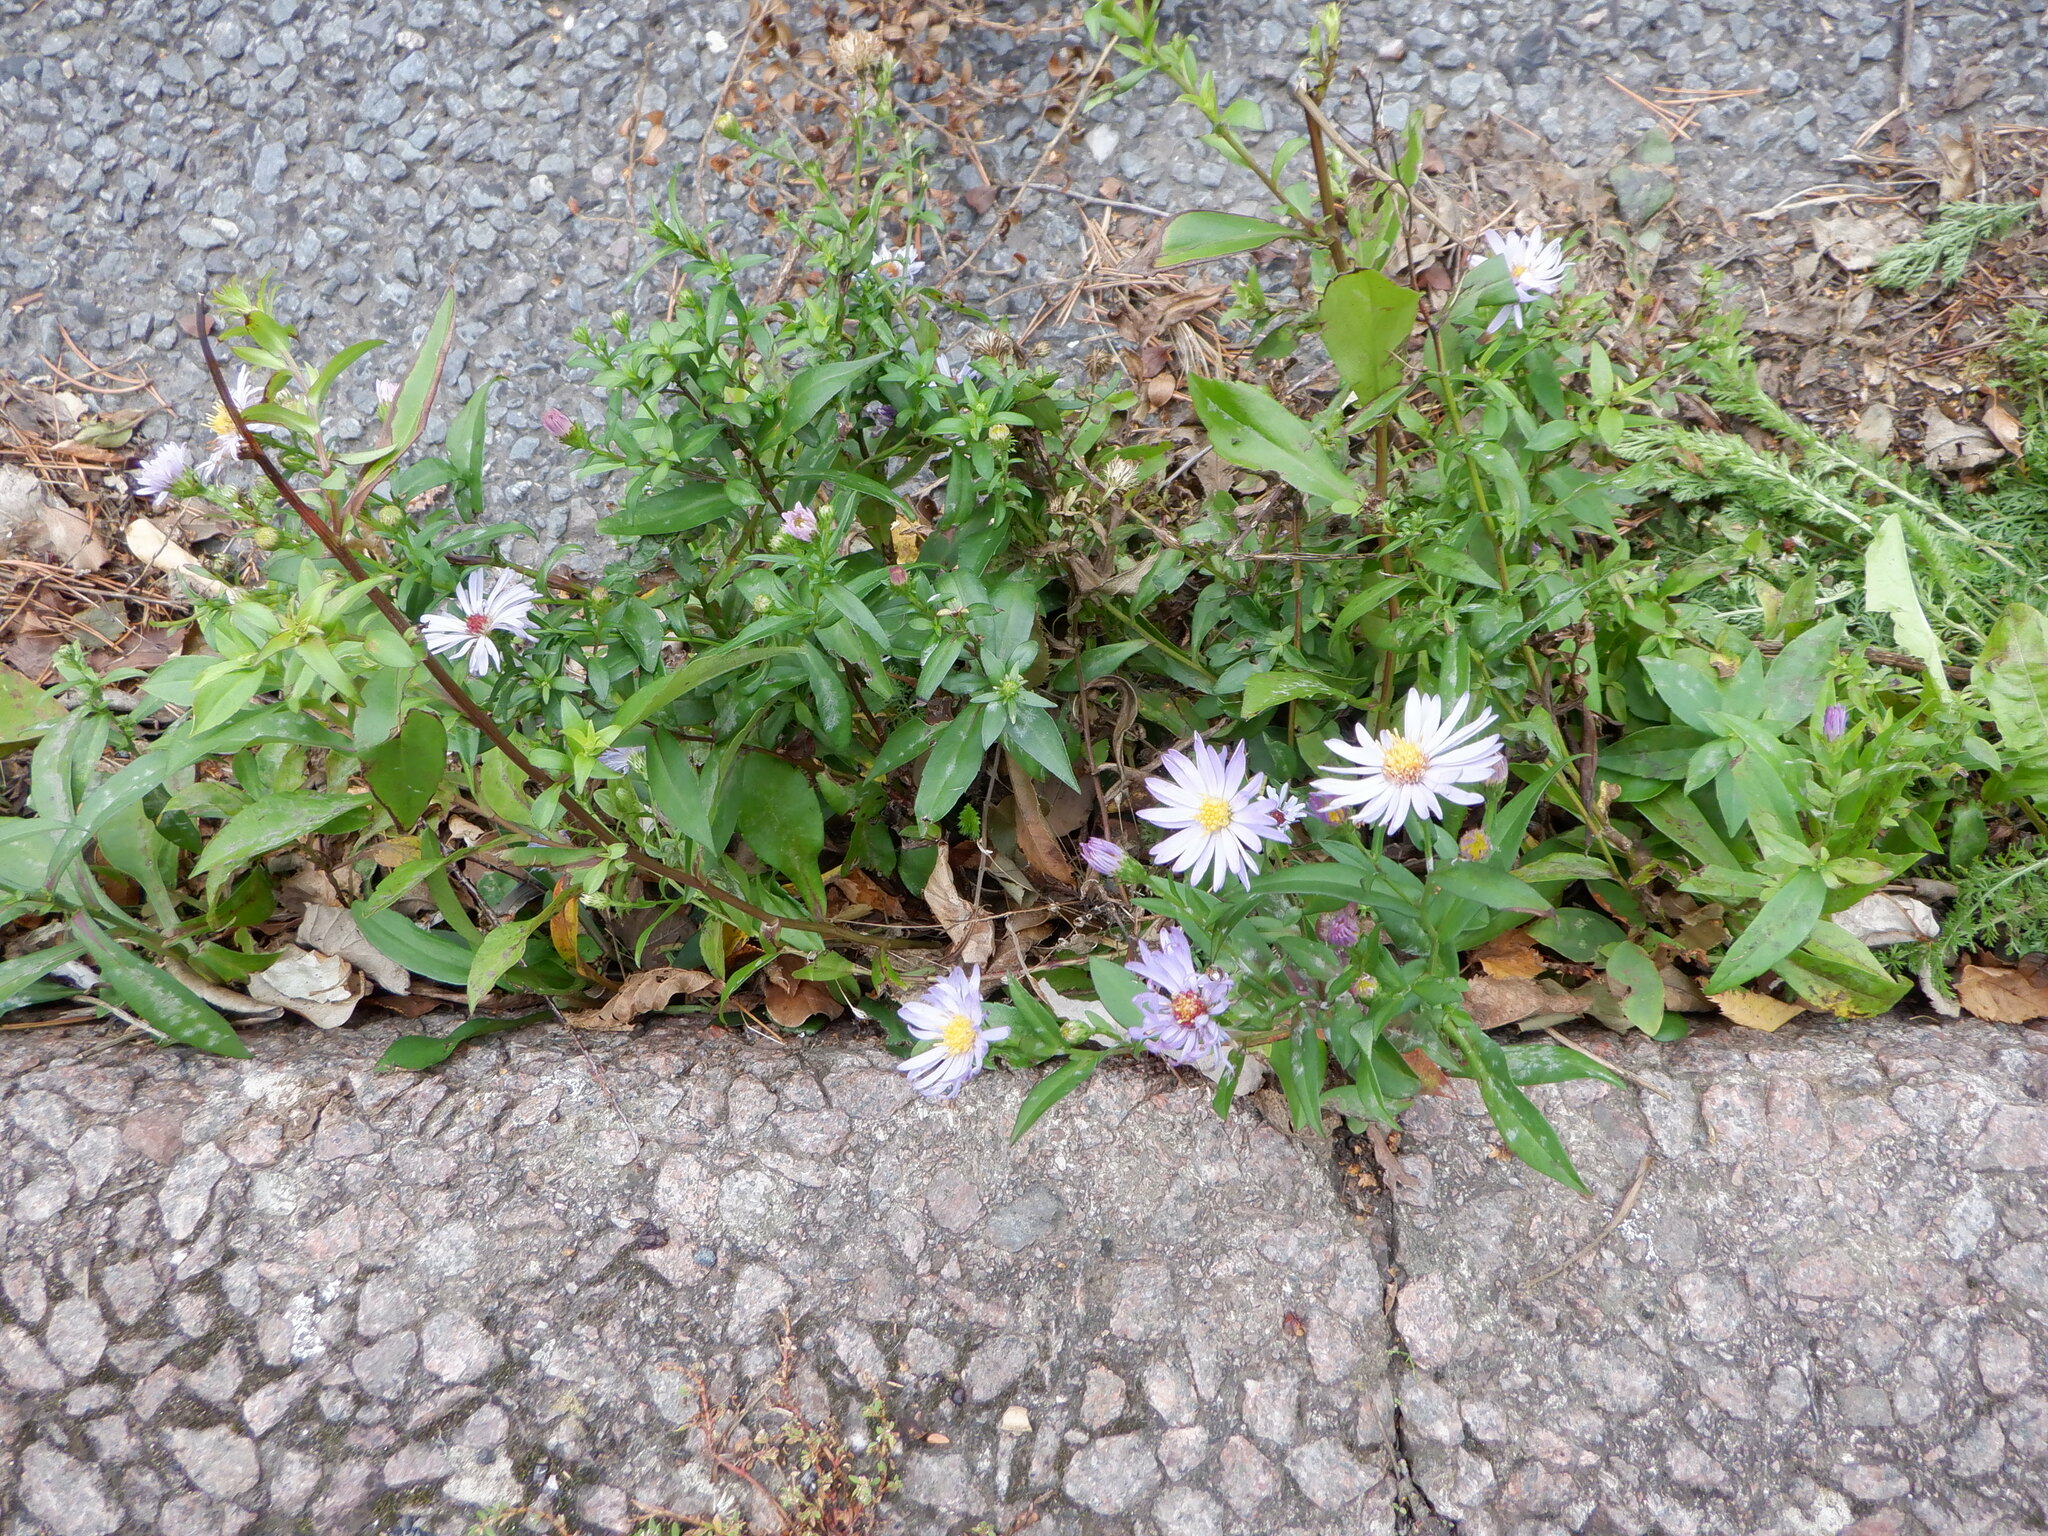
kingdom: Plantae
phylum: Tracheophyta
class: Magnoliopsida
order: Asterales
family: Asteraceae
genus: Symphyotrichum
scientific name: Symphyotrichum novi-belgii
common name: Michaelmas daisy
